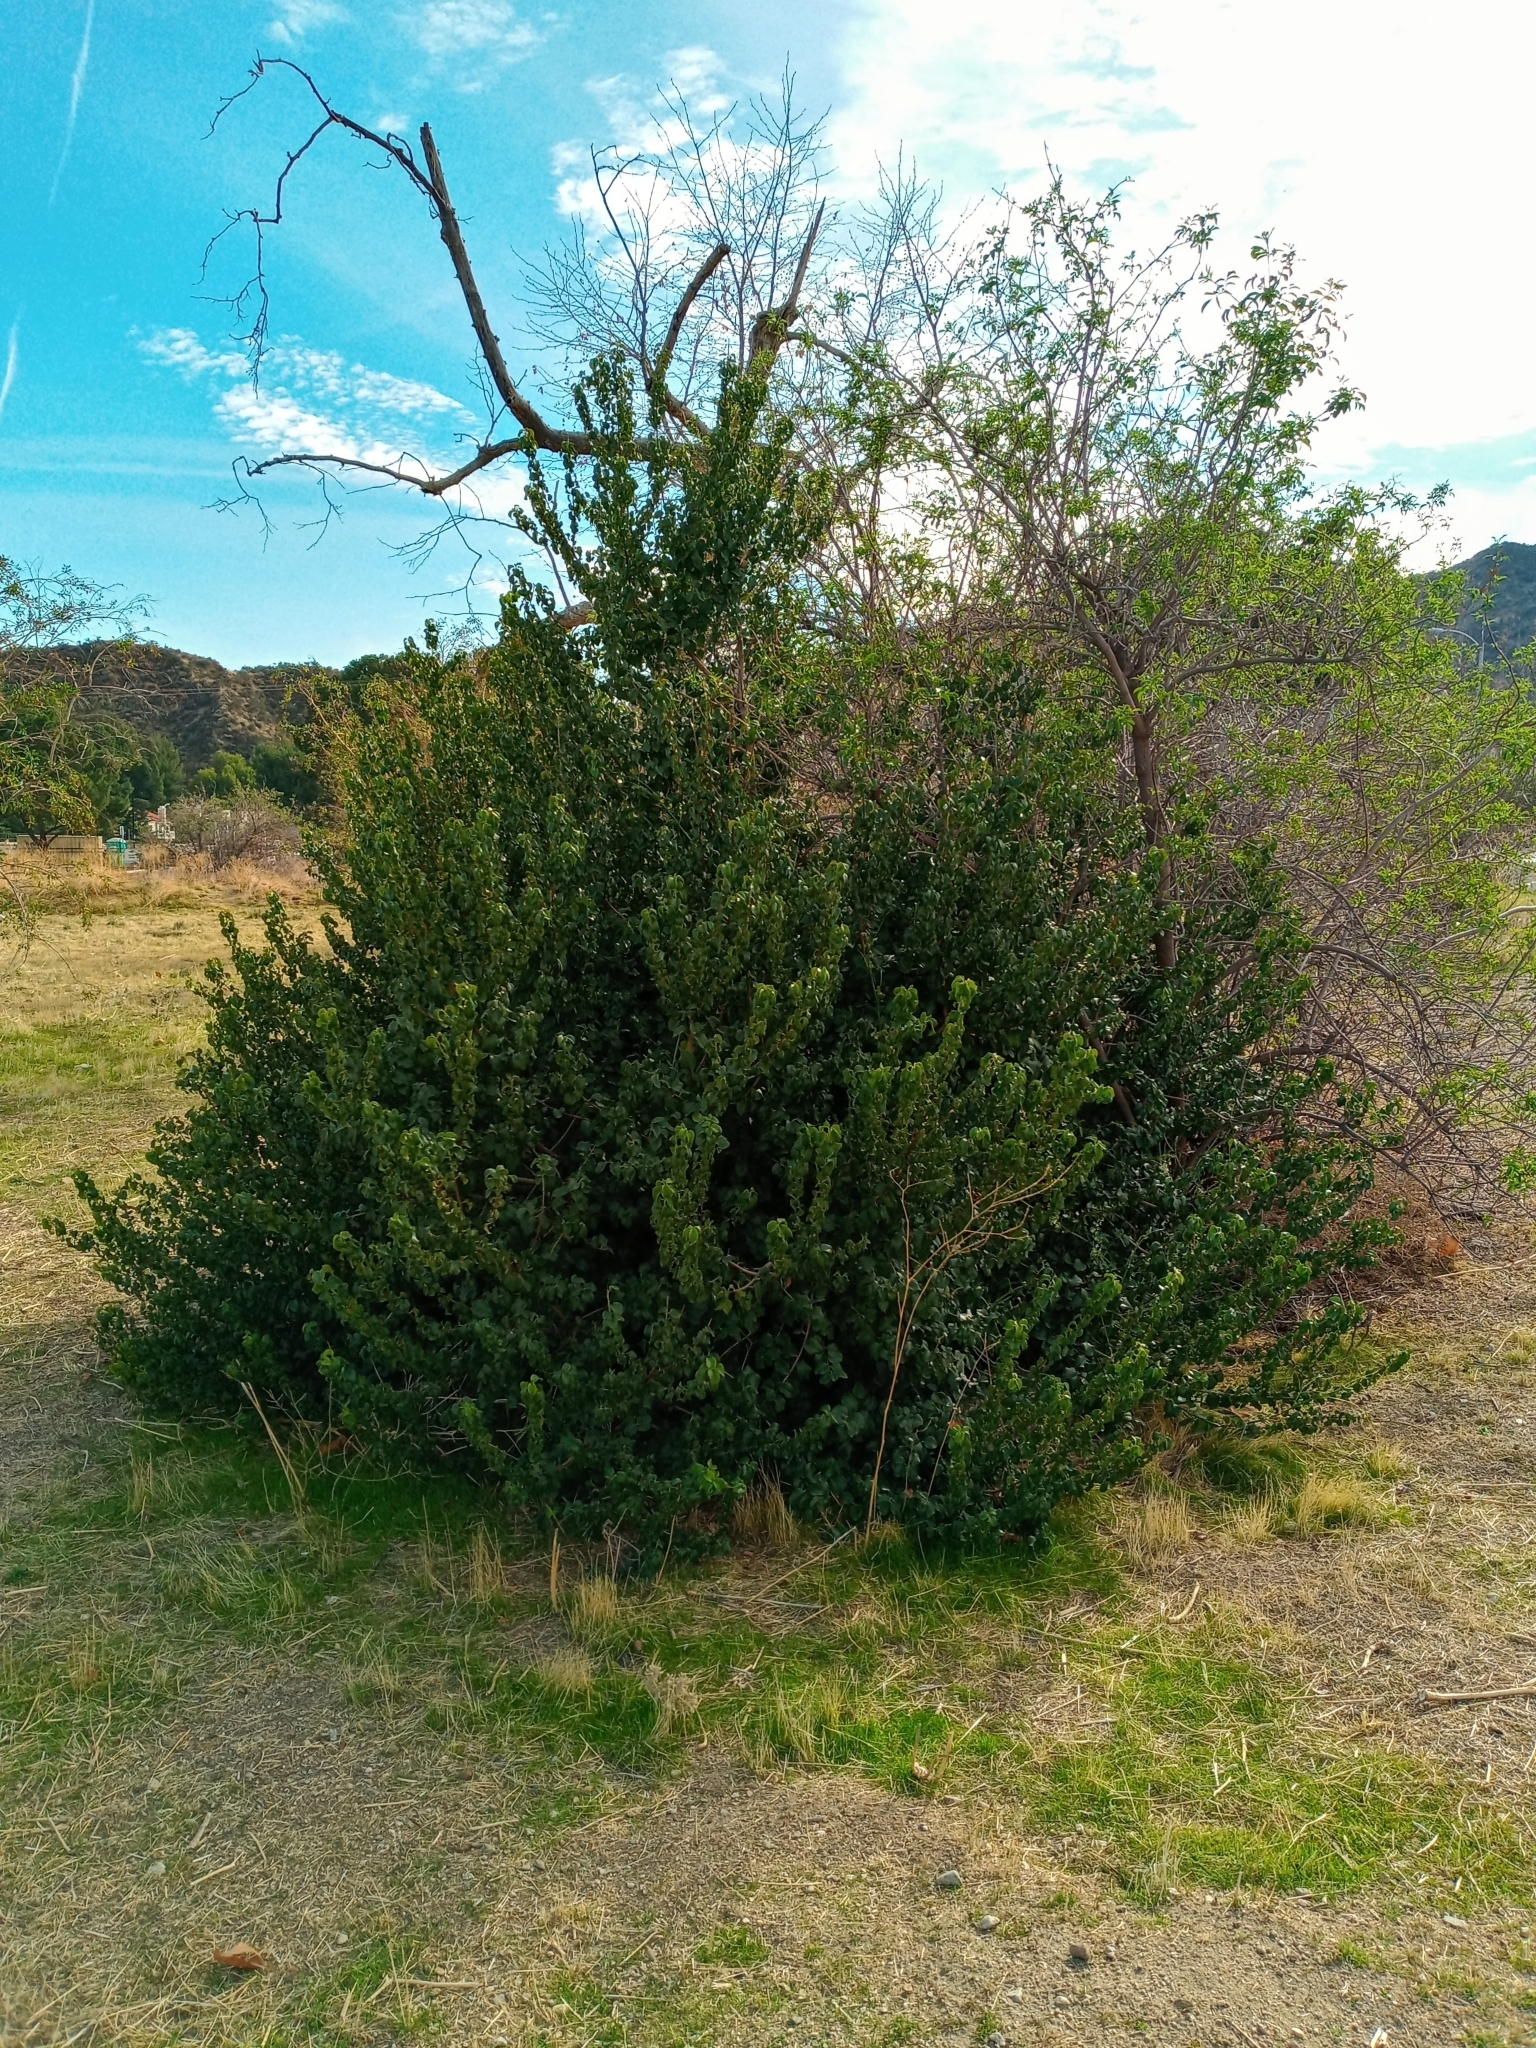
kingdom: Plantae
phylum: Tracheophyta
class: Magnoliopsida
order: Rosales
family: Rosaceae
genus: Prunus
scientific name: Prunus ilicifolia
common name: Hollyleaf cherry
